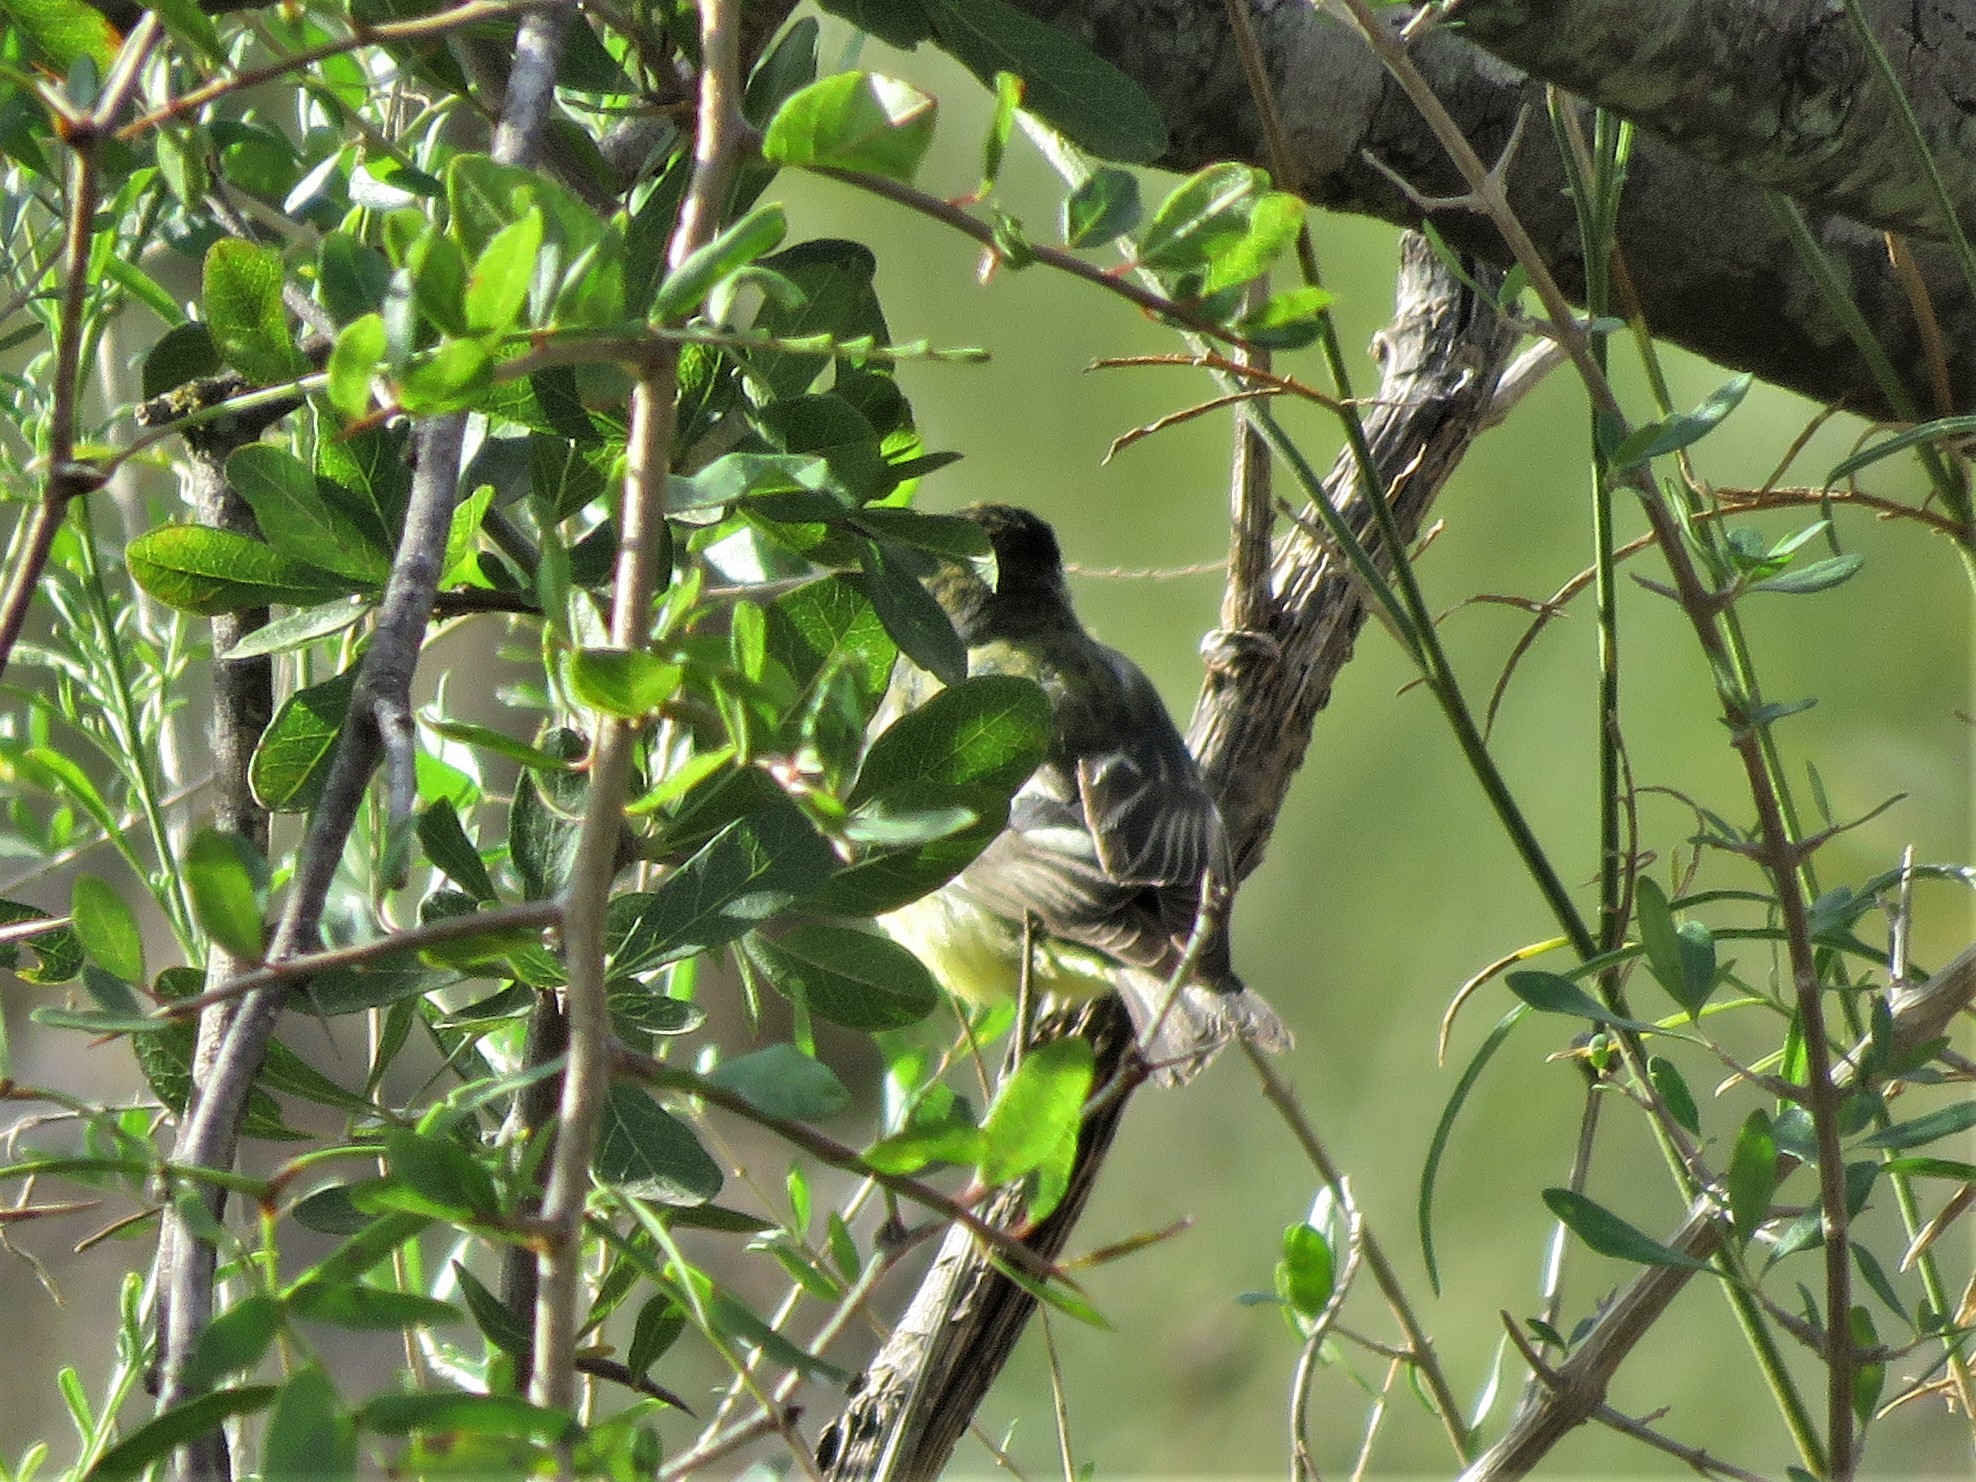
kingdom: Animalia
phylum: Chordata
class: Aves
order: Passeriformes
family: Fringillidae
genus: Spinus
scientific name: Spinus psaltria
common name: Lesser goldfinch
